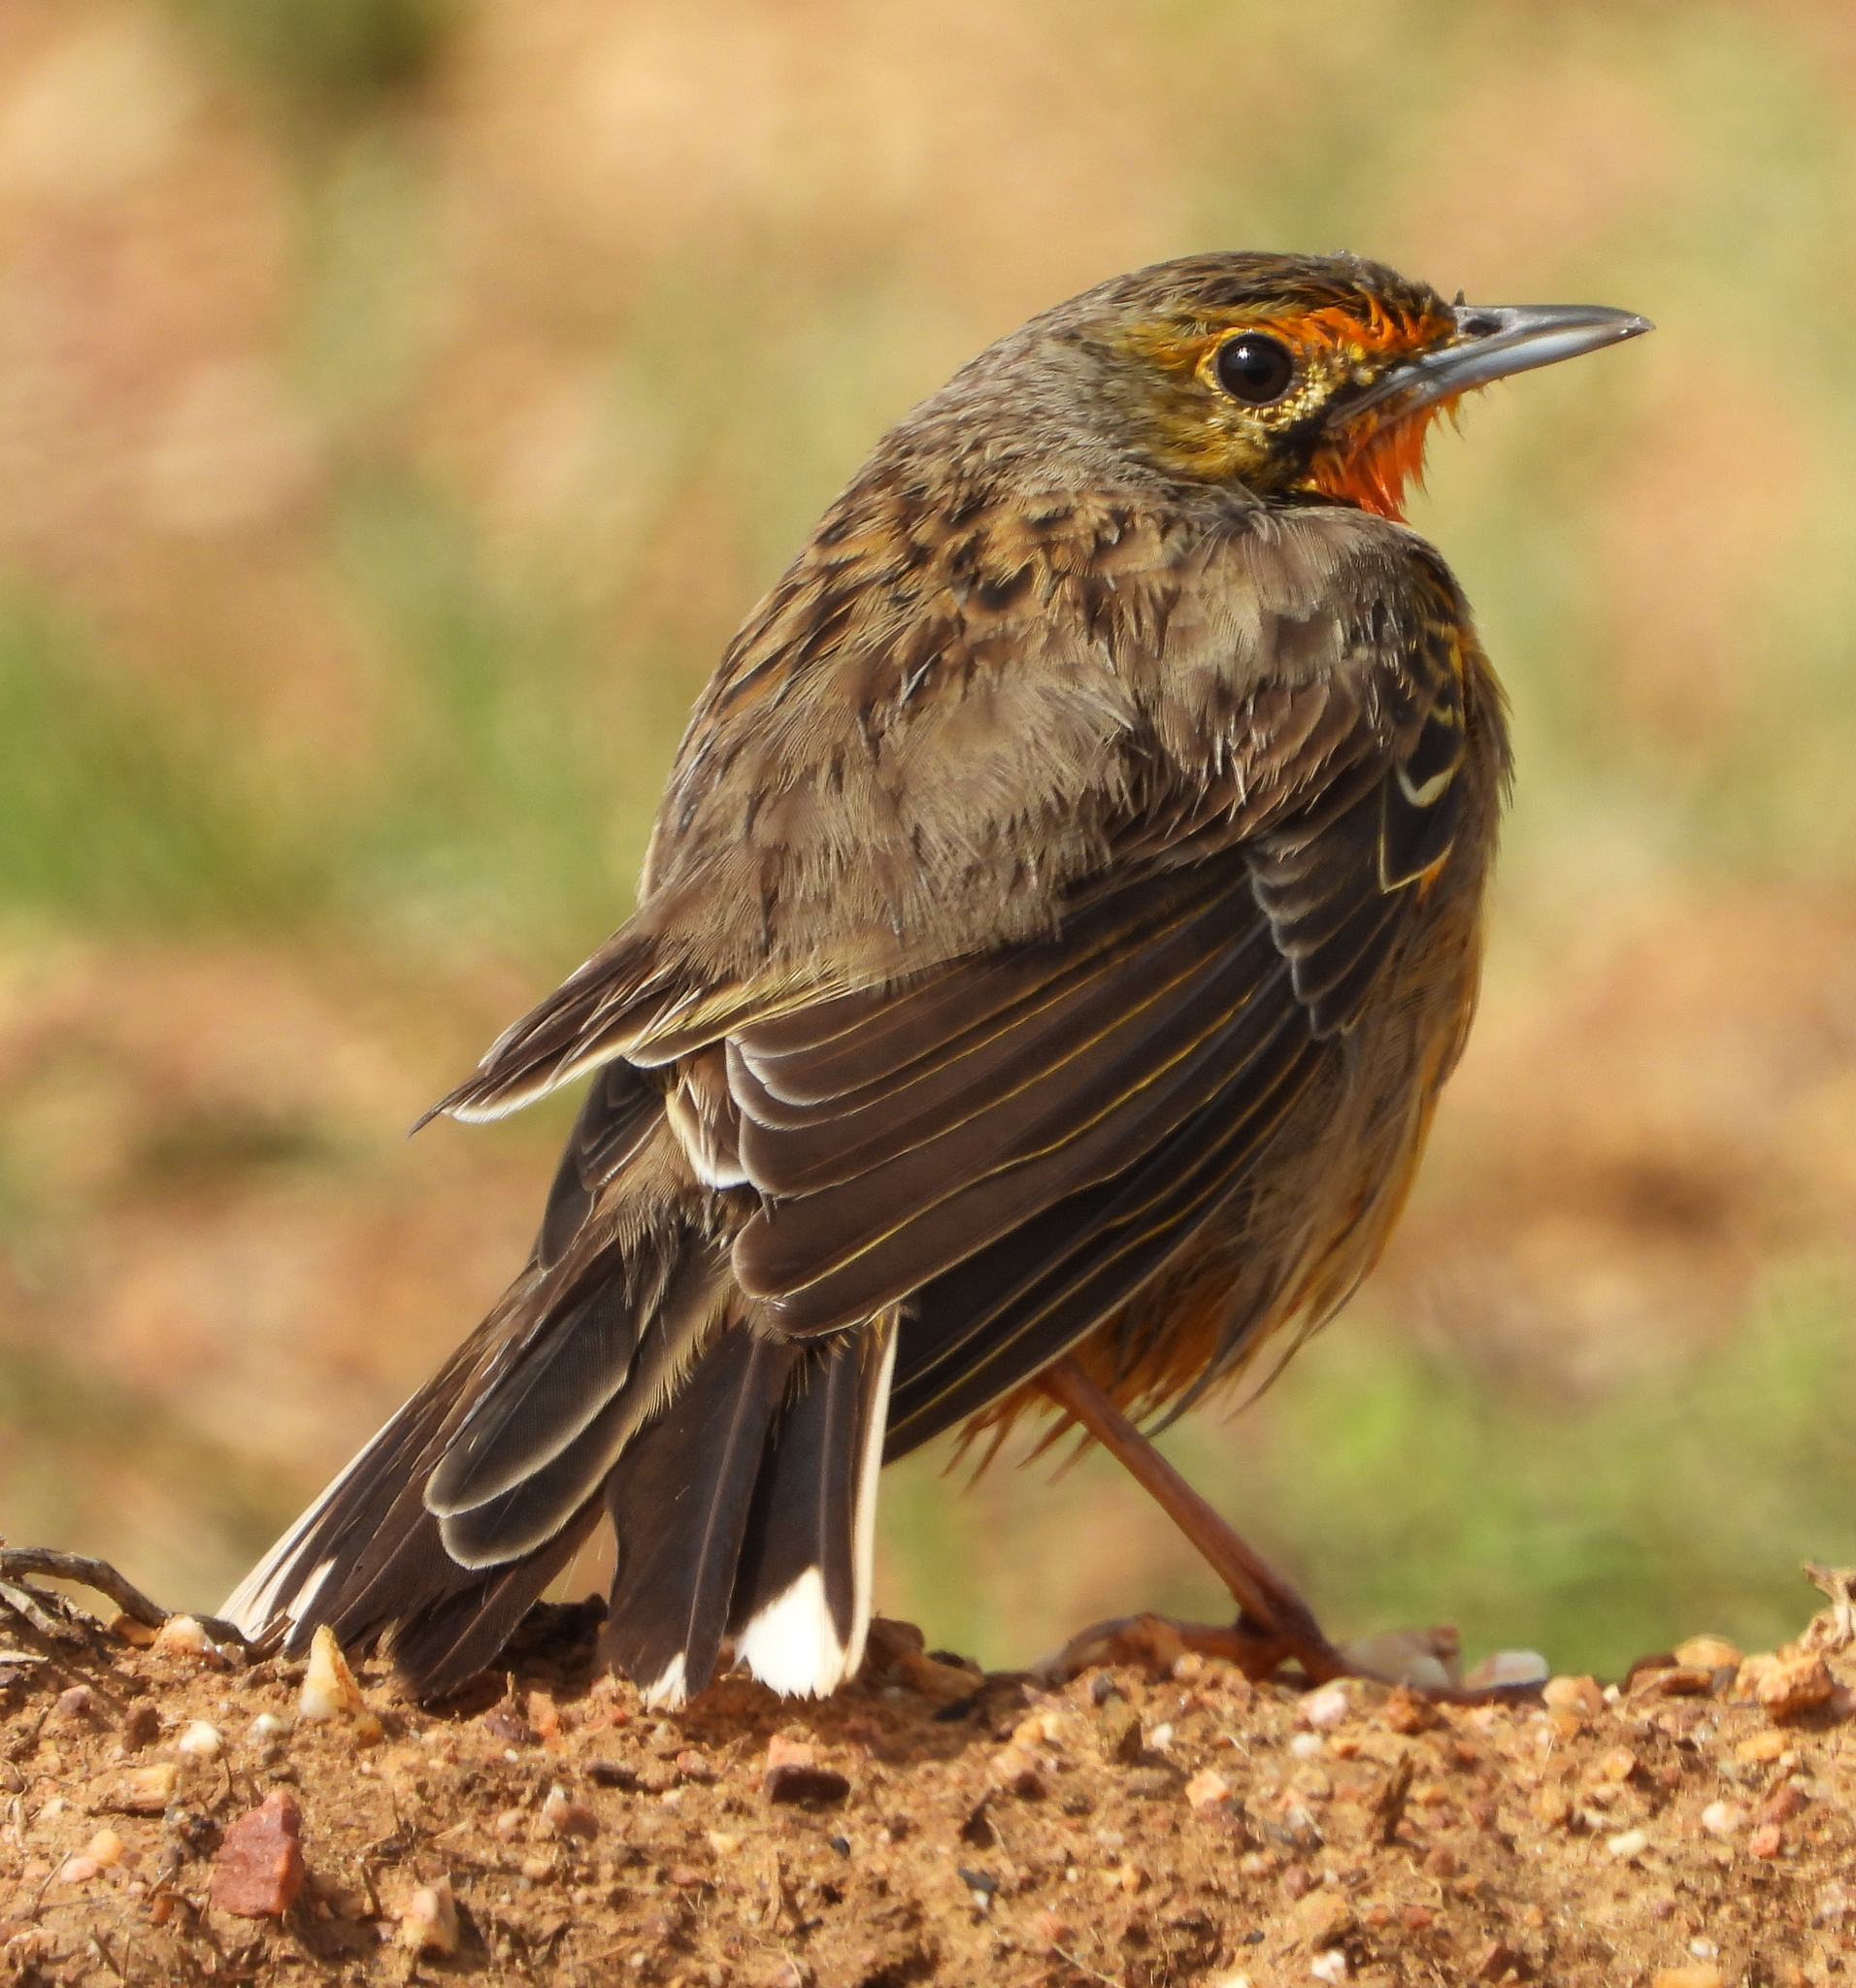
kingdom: Animalia
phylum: Chordata
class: Aves
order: Passeriformes
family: Motacillidae
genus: Macronyx
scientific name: Macronyx capensis
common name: Cape longclaw
